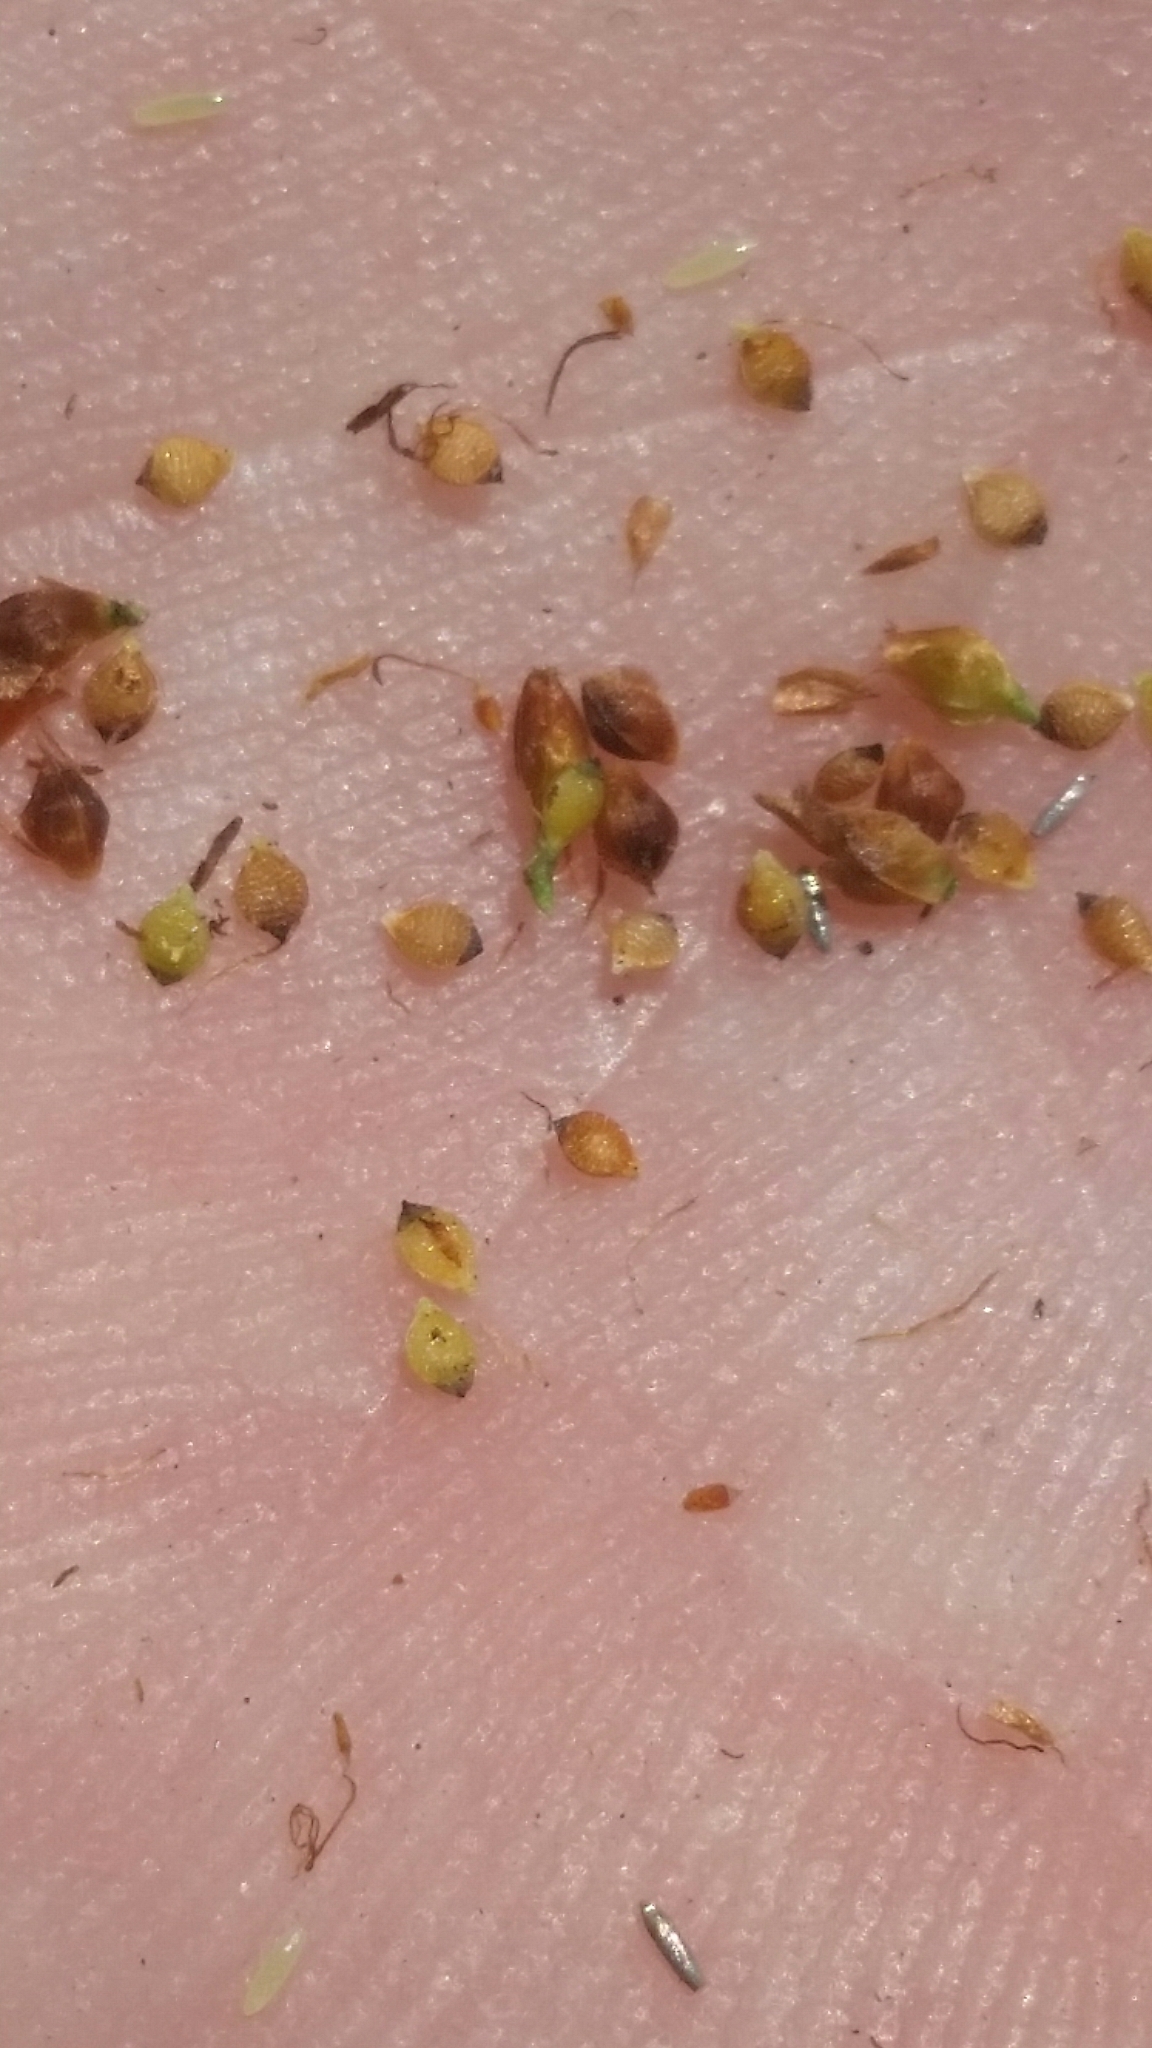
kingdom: Plantae
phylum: Tracheophyta
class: Liliopsida
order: Poales
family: Cyperaceae
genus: Rhynchospora
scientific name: Rhynchospora microcarpa
